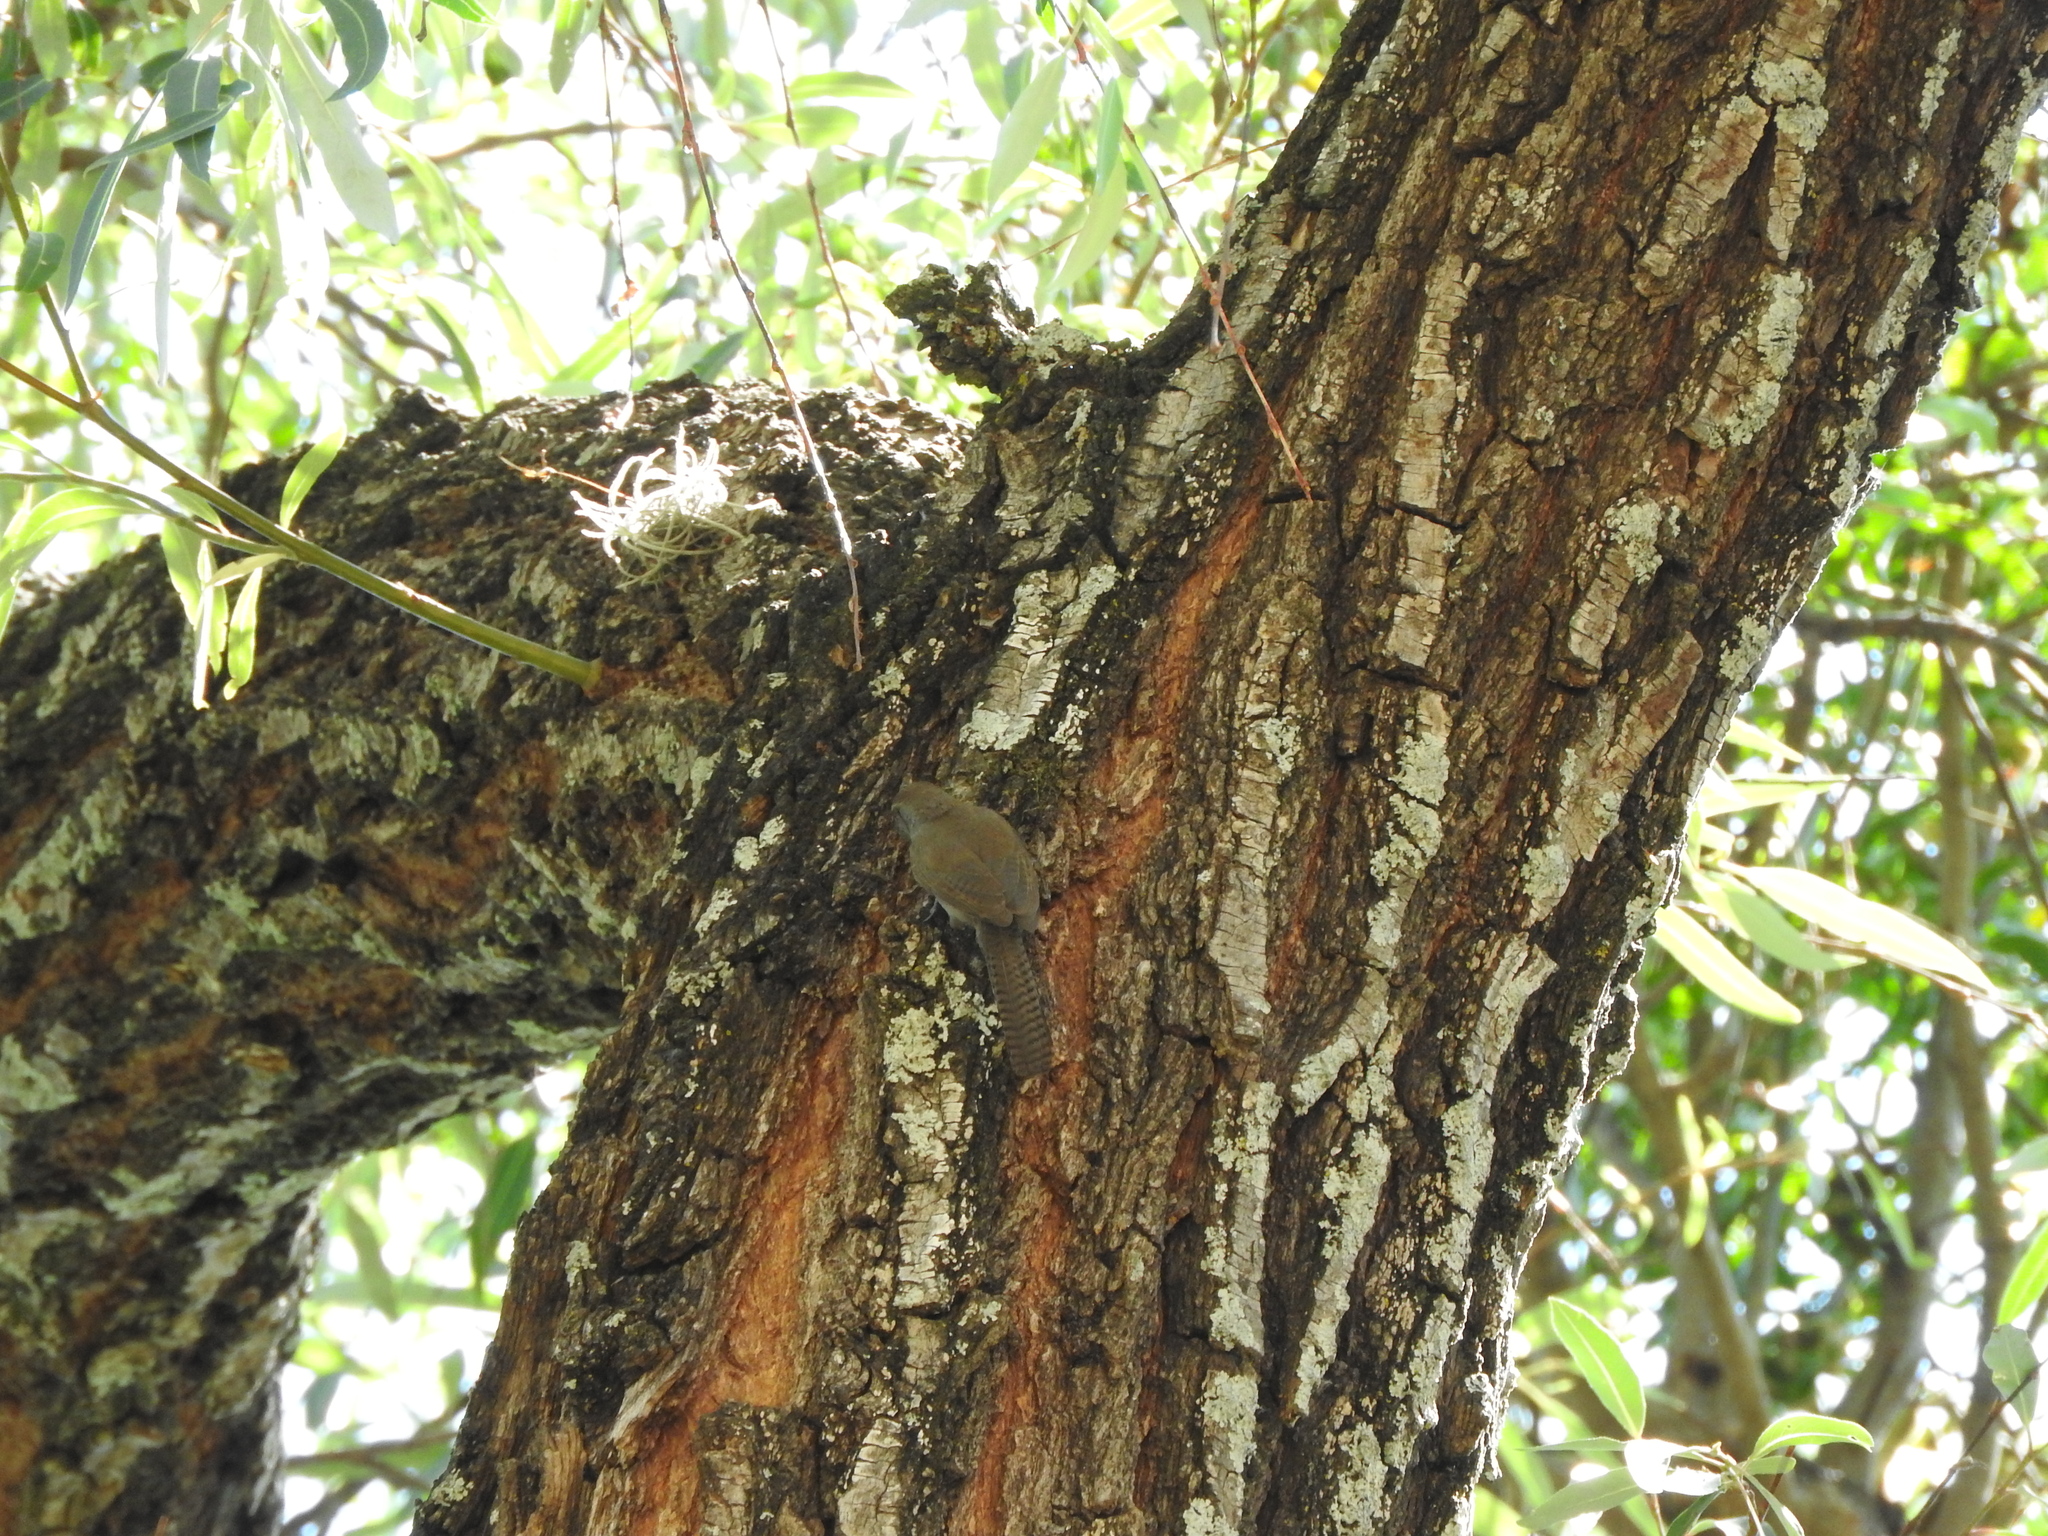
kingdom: Animalia
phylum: Chordata
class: Aves
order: Passeriformes
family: Troglodytidae
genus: Thryomanes
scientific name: Thryomanes bewickii
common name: Bewick's wren
